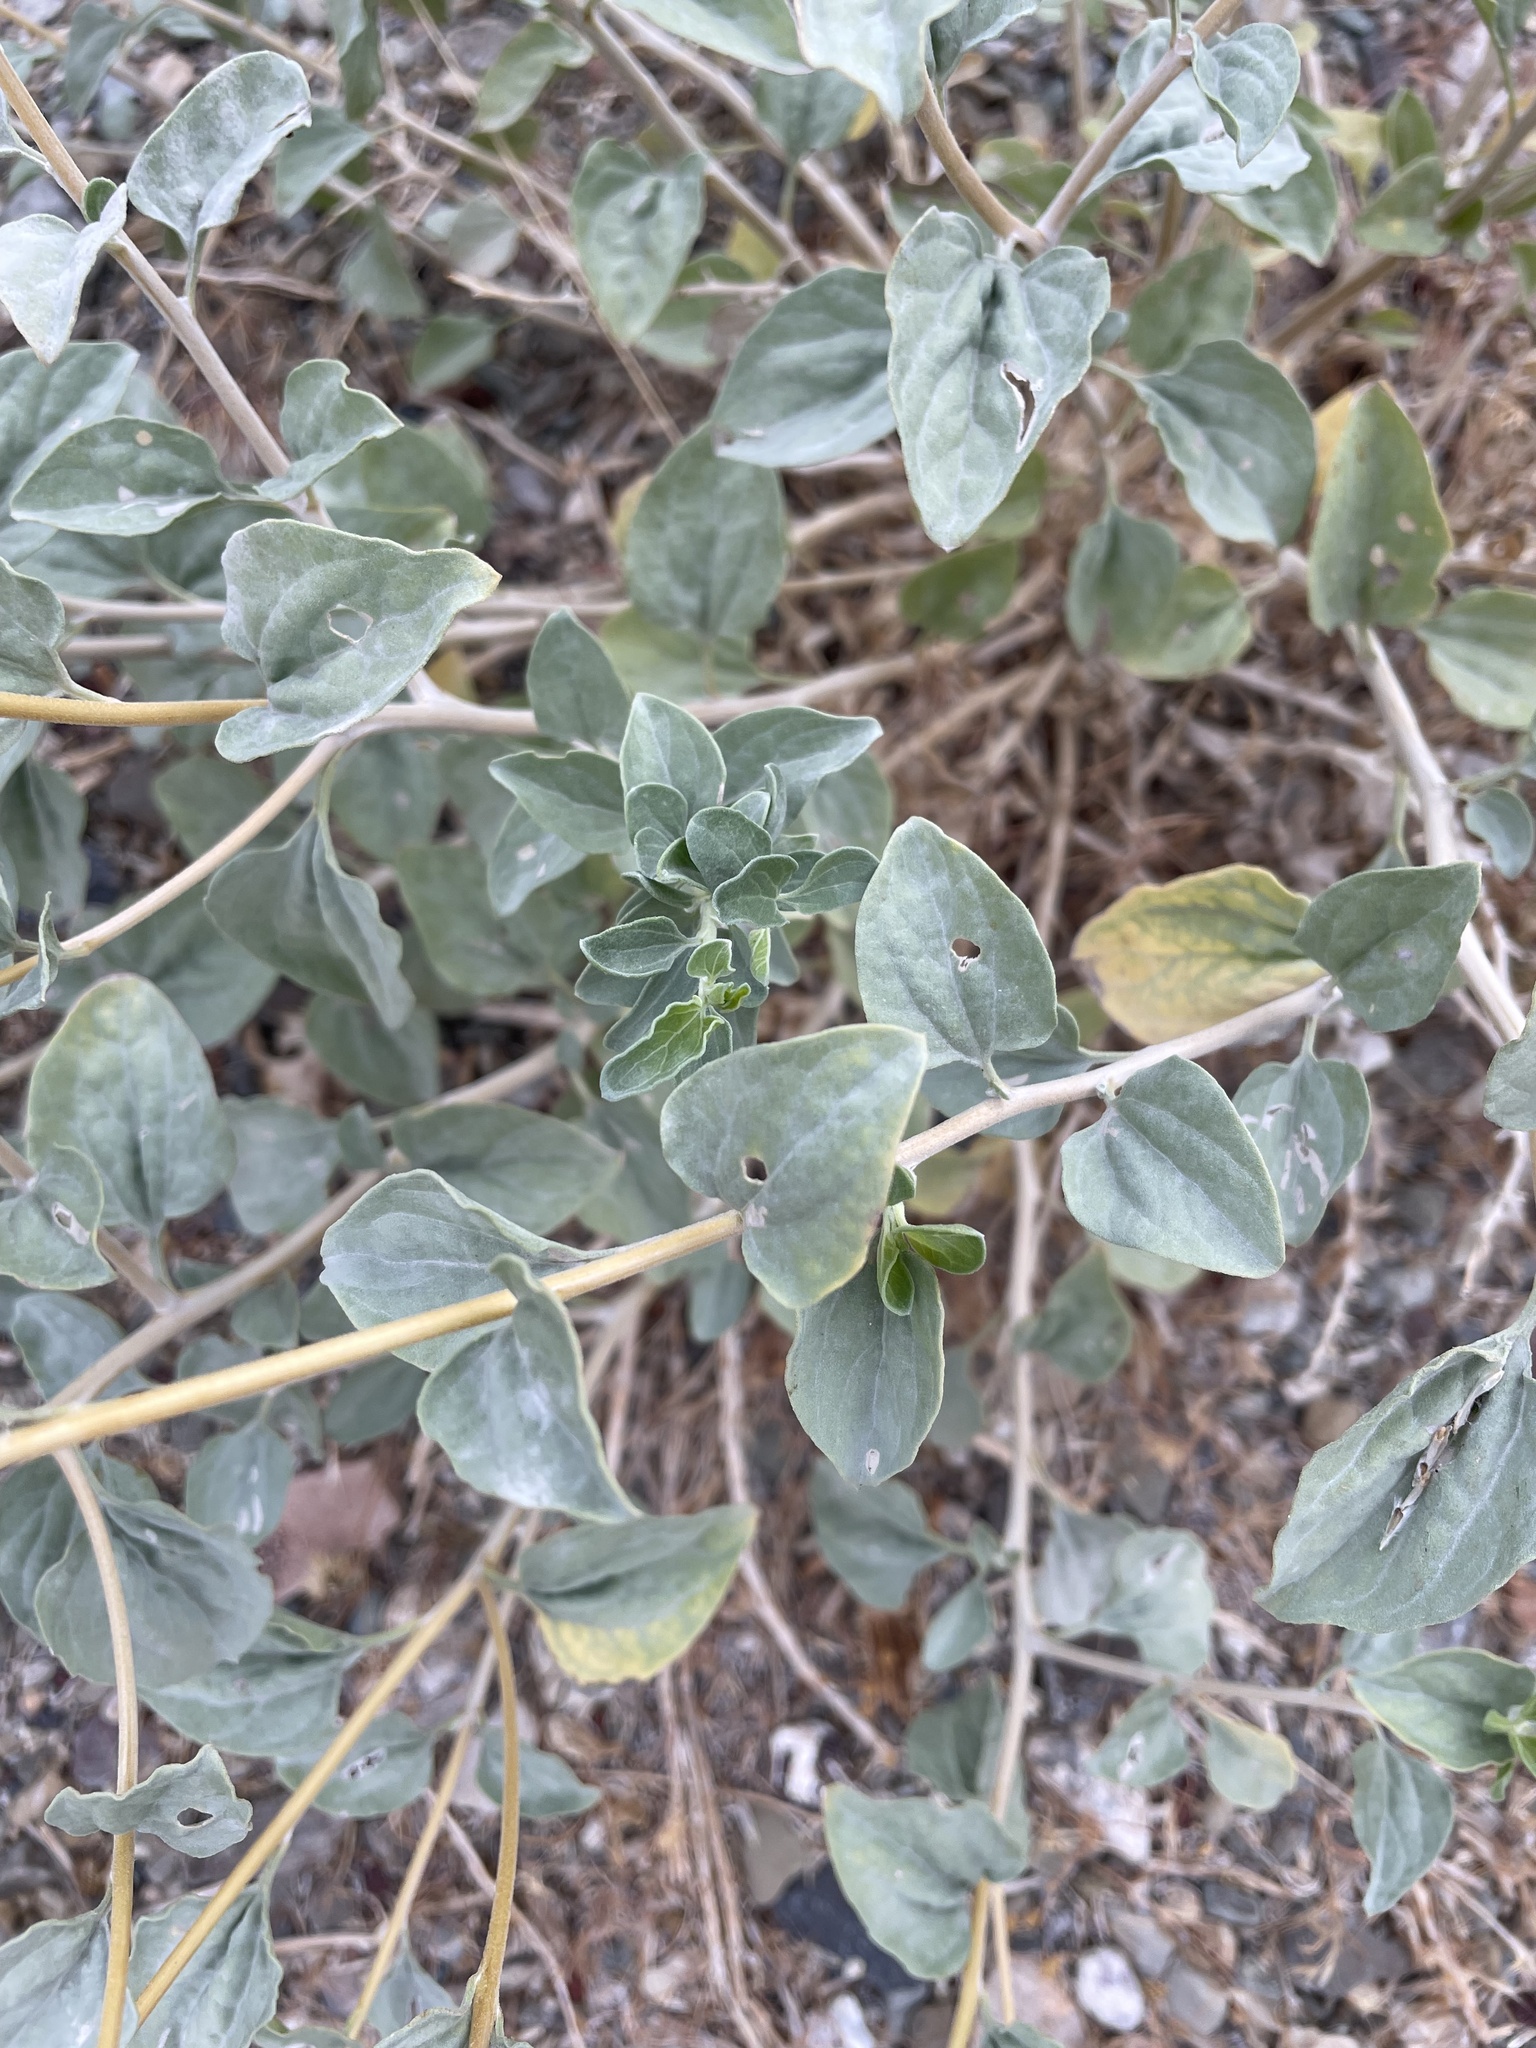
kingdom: Plantae
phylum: Tracheophyta
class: Magnoliopsida
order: Asterales
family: Asteraceae
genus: Encelia
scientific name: Encelia actoni
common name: Acton encelia
